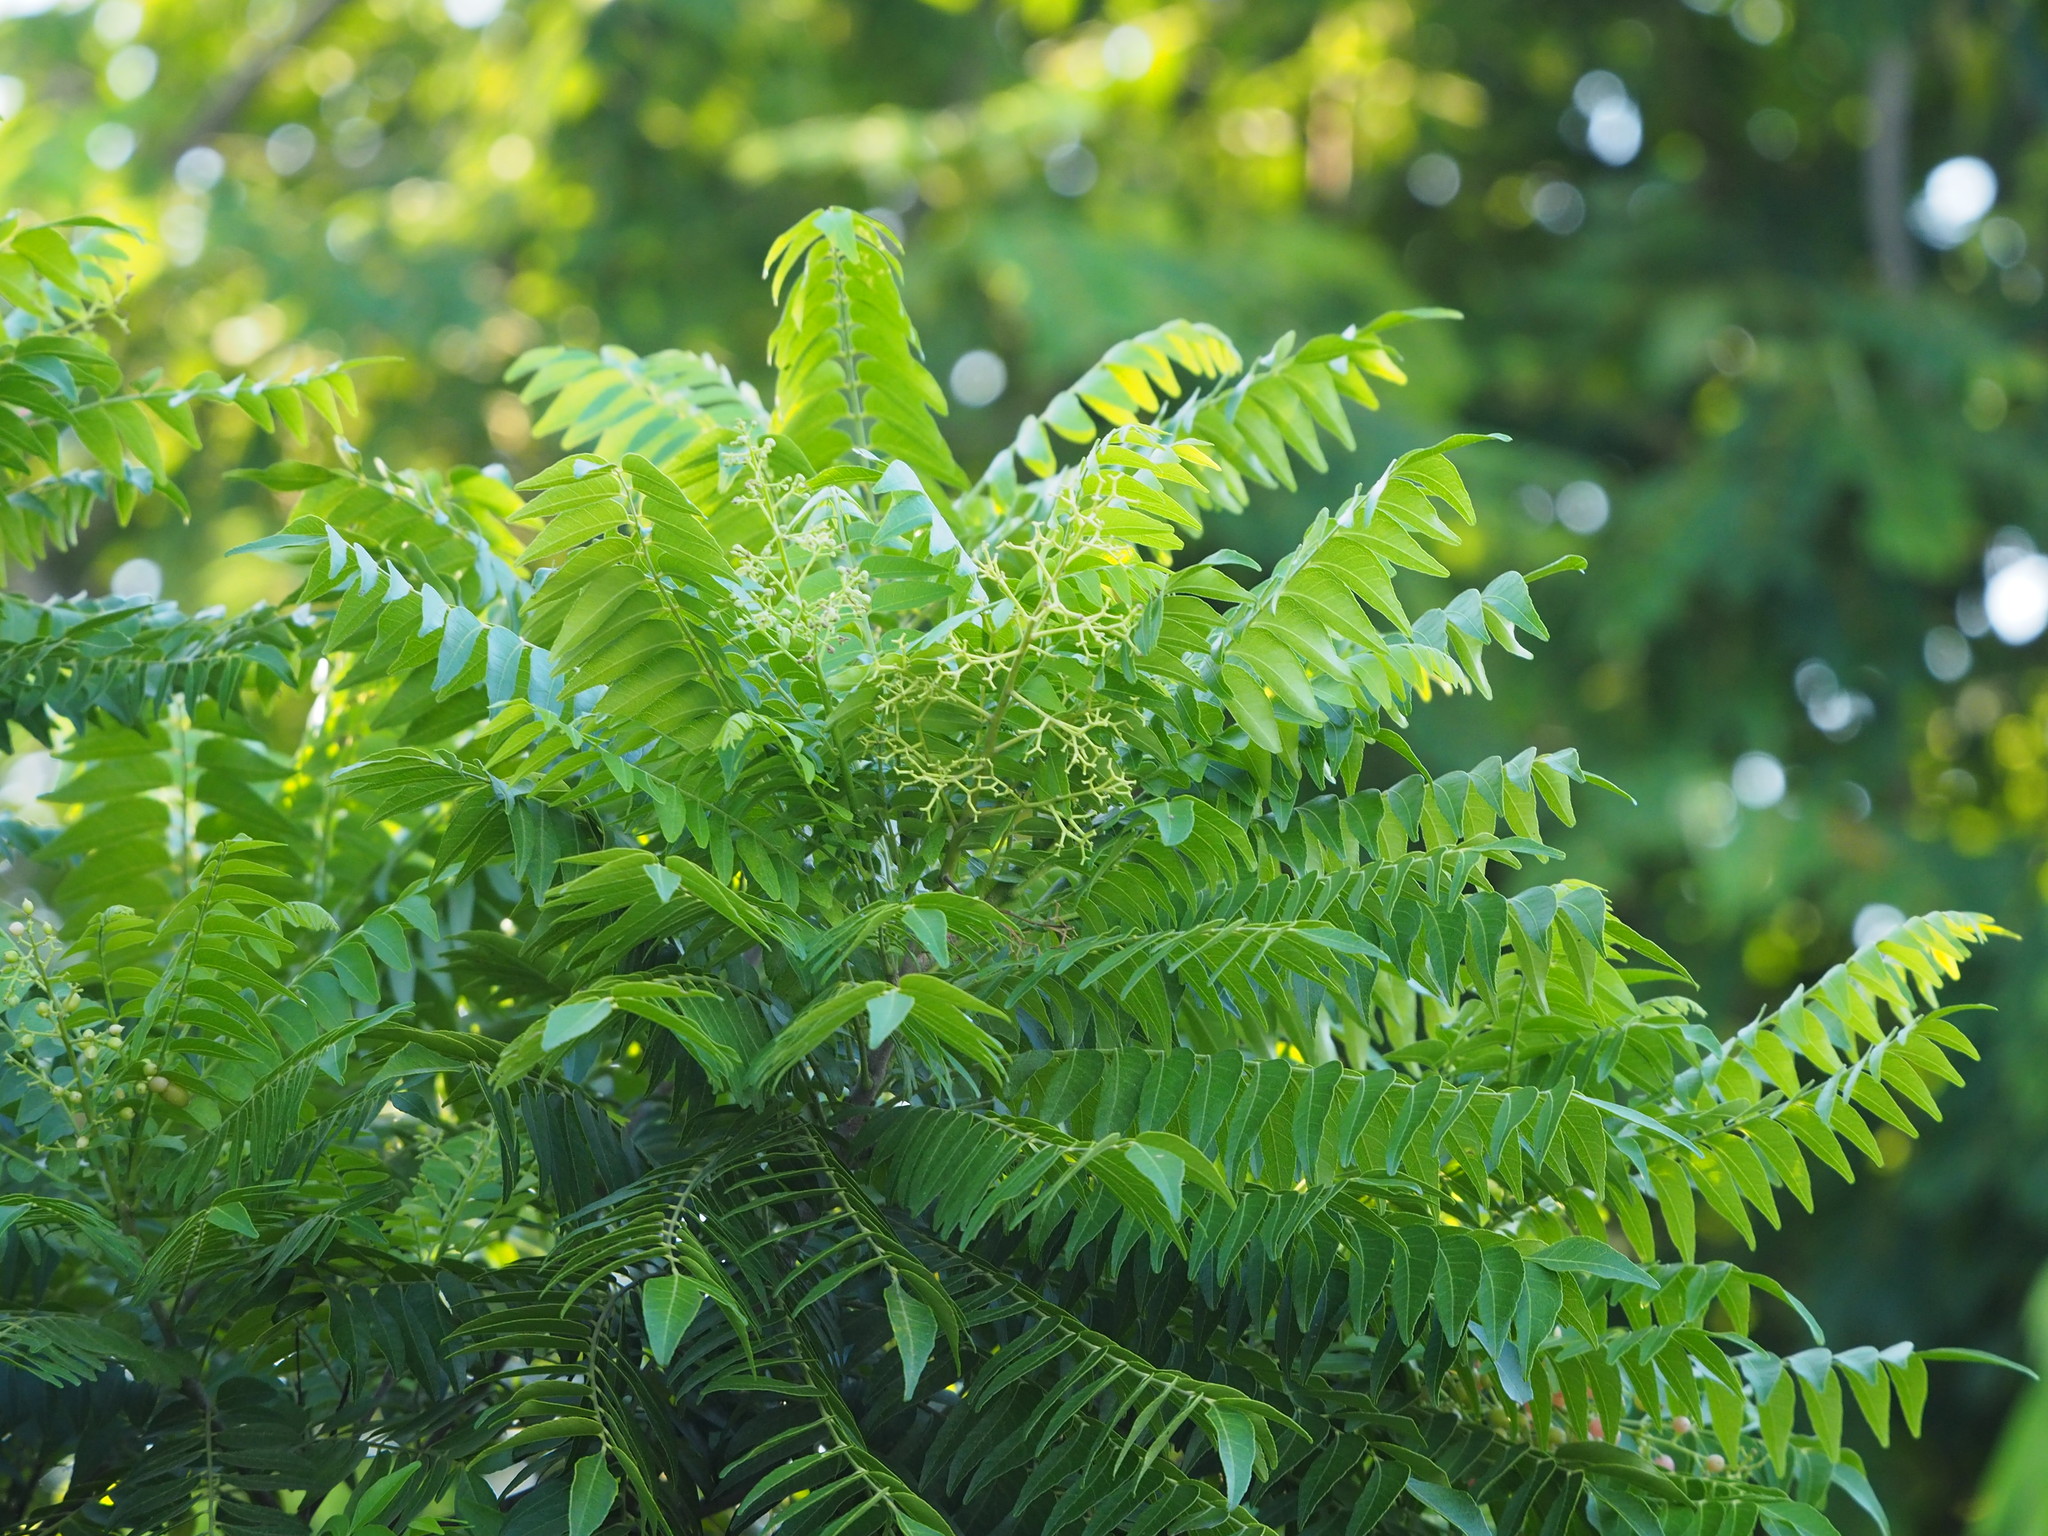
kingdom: Plantae
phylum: Tracheophyta
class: Magnoliopsida
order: Sapindales
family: Rutaceae
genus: Clausena
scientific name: Clausena excavata
